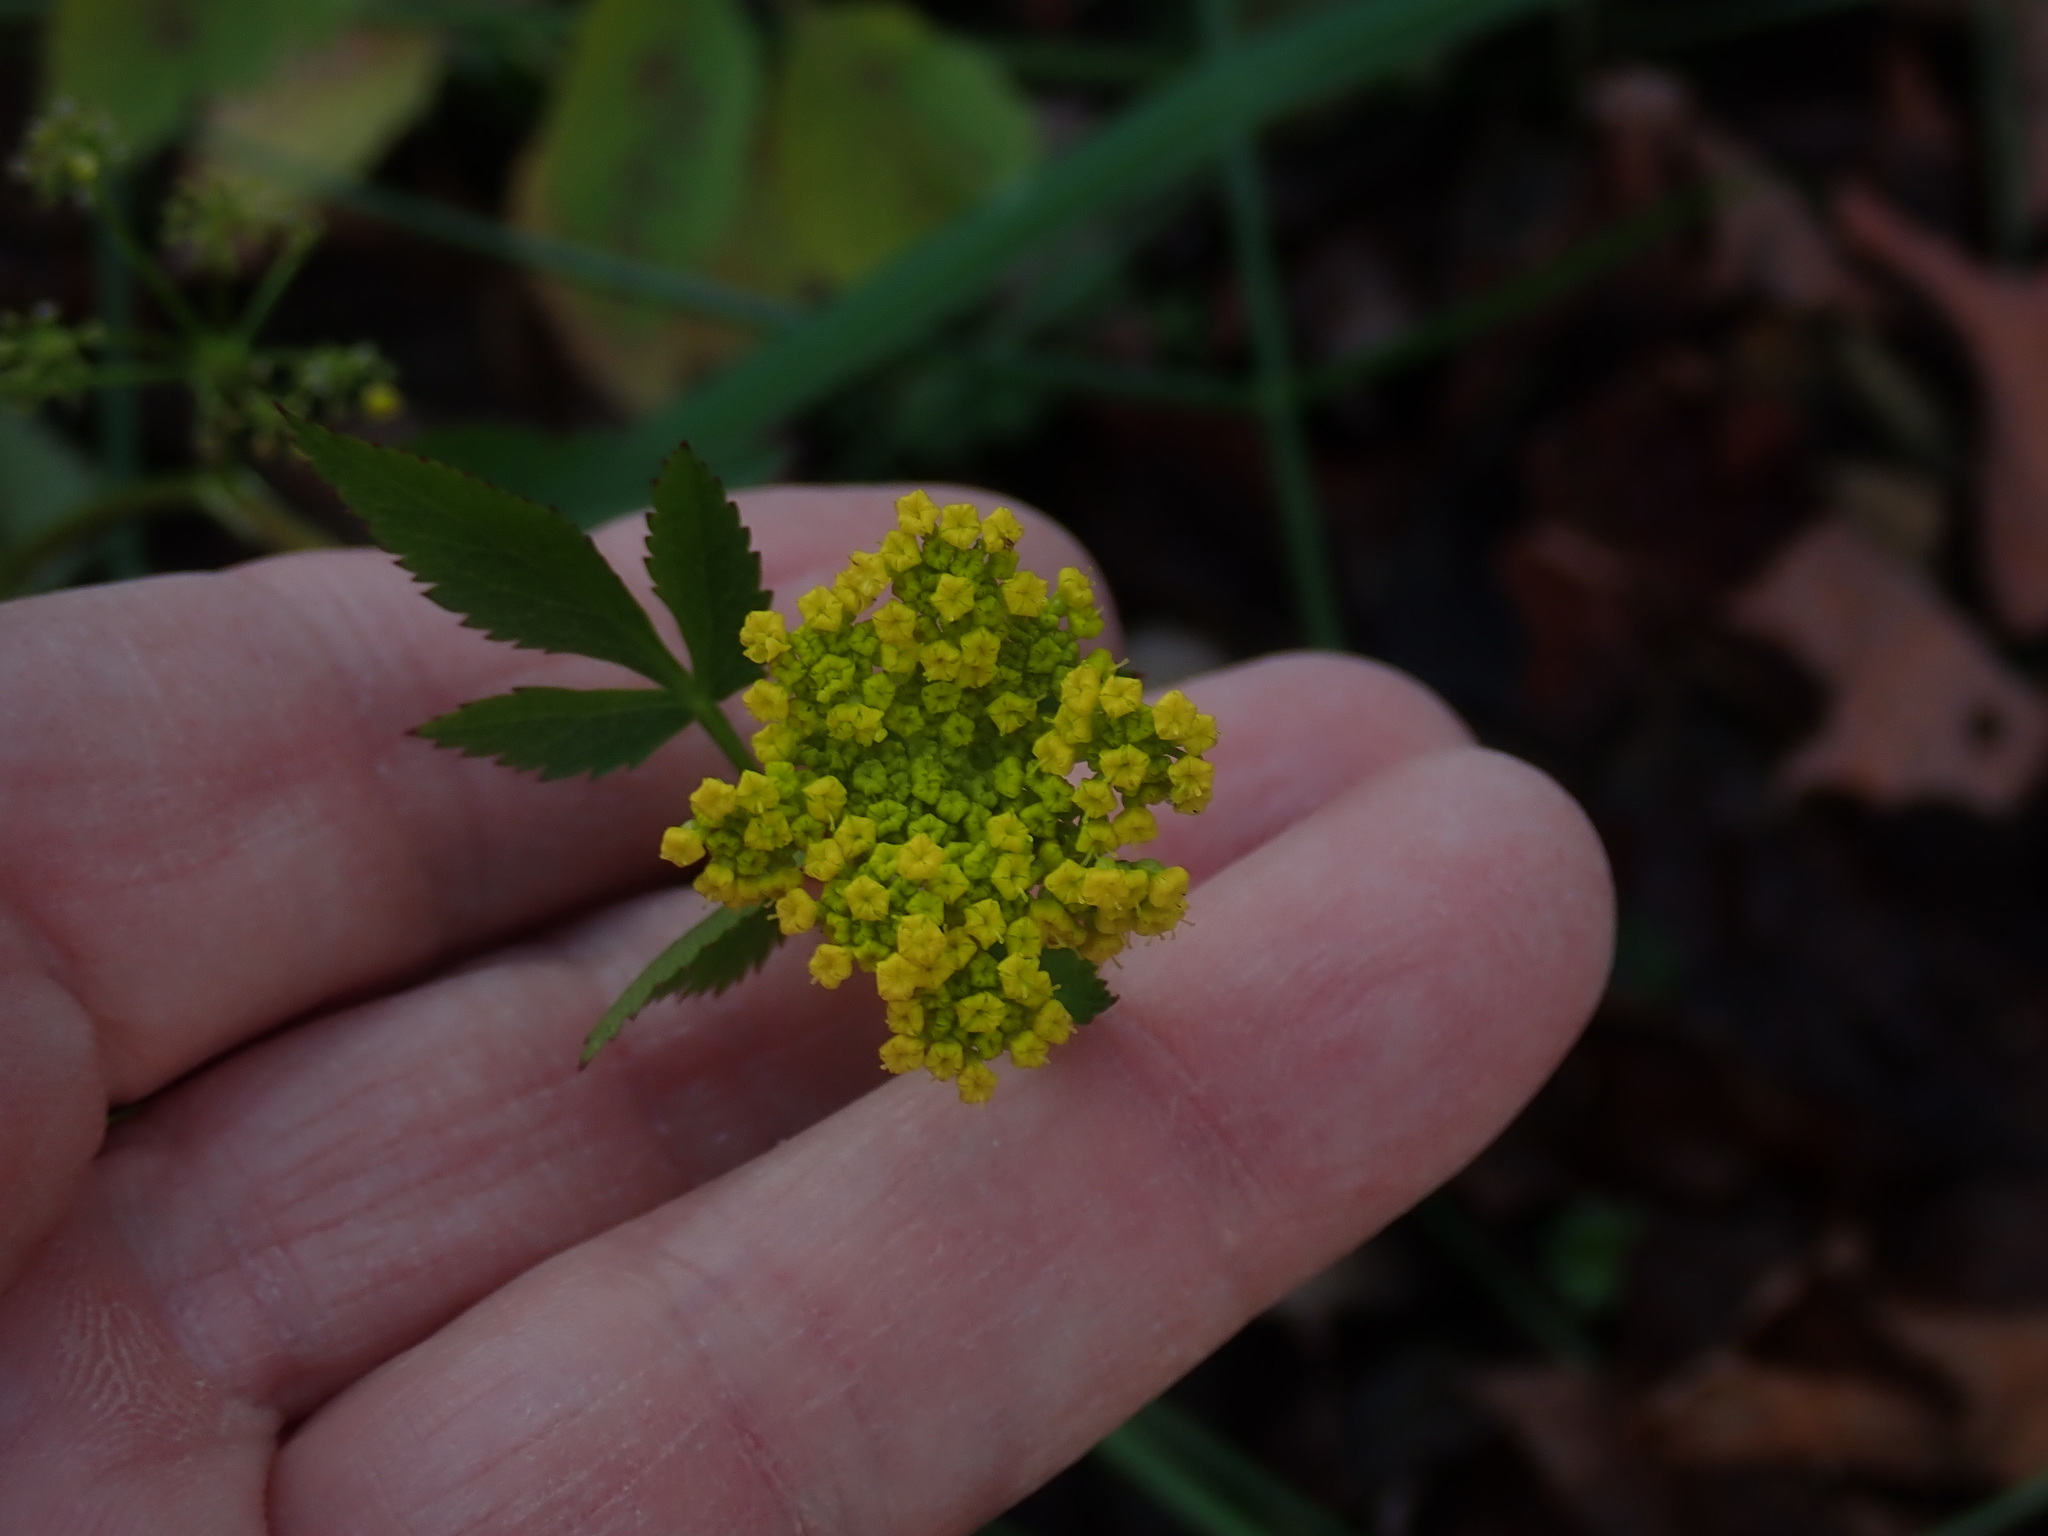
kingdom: Plantae
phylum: Tracheophyta
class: Magnoliopsida
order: Apiales
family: Apiaceae
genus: Zizia
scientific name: Zizia aurea
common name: Golden alexanders
